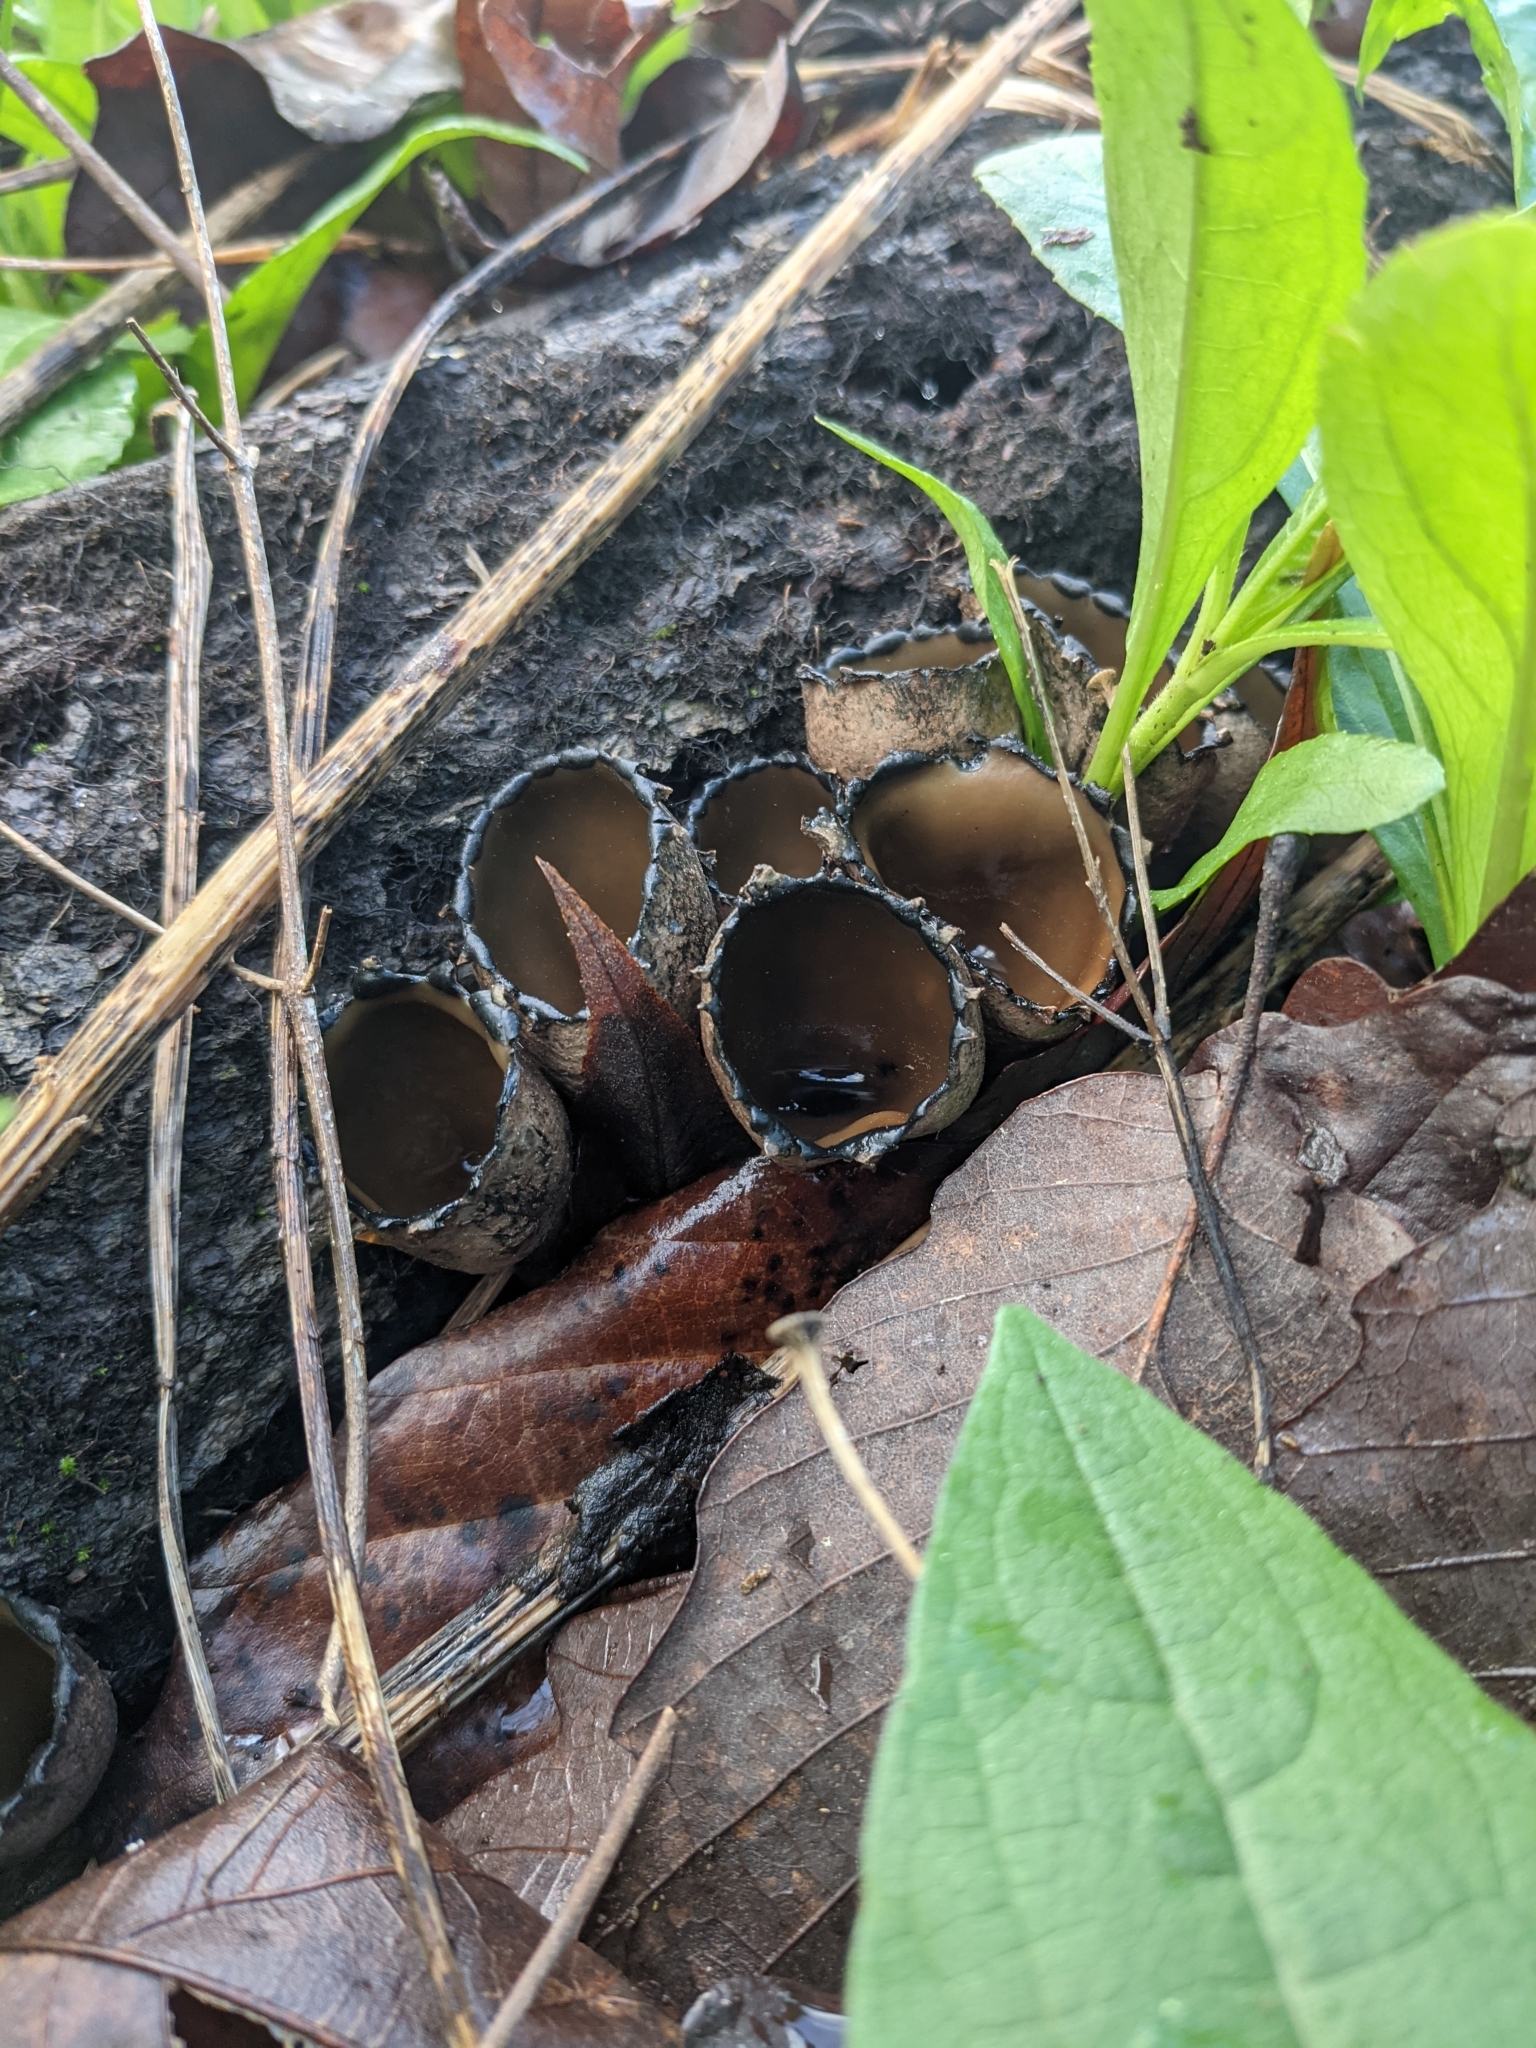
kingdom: Fungi
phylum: Ascomycota
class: Pezizomycetes
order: Pezizales
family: Sarcosomataceae
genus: Urnula
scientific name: Urnula craterium
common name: Devil's urn
